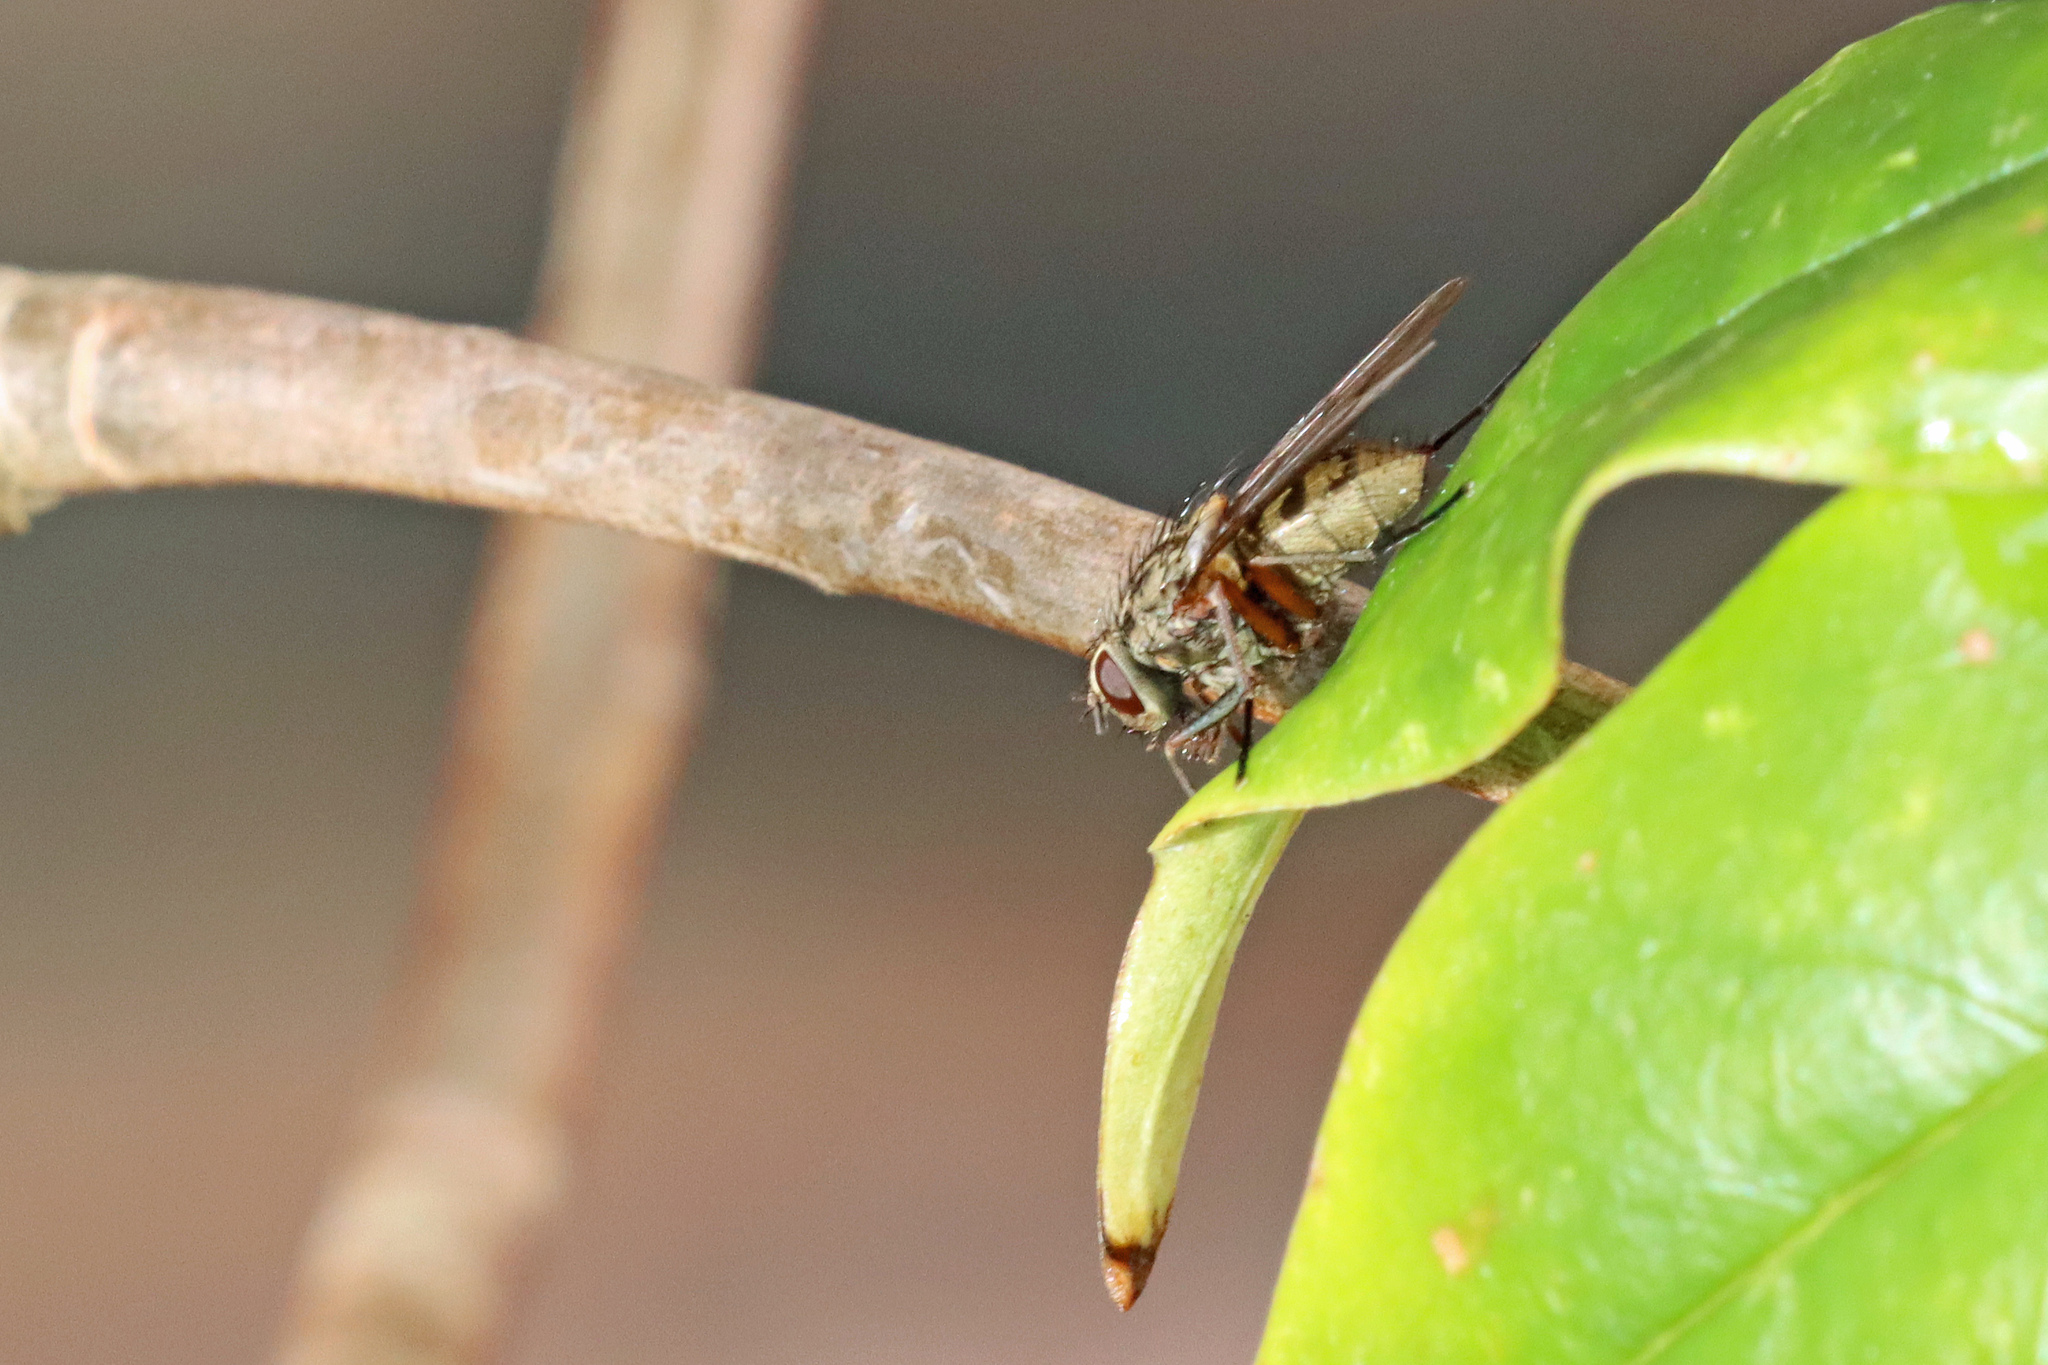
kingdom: Animalia
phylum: Arthropoda
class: Insecta
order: Diptera
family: Muscidae
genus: Phaonia
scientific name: Phaonia tuguriorum
